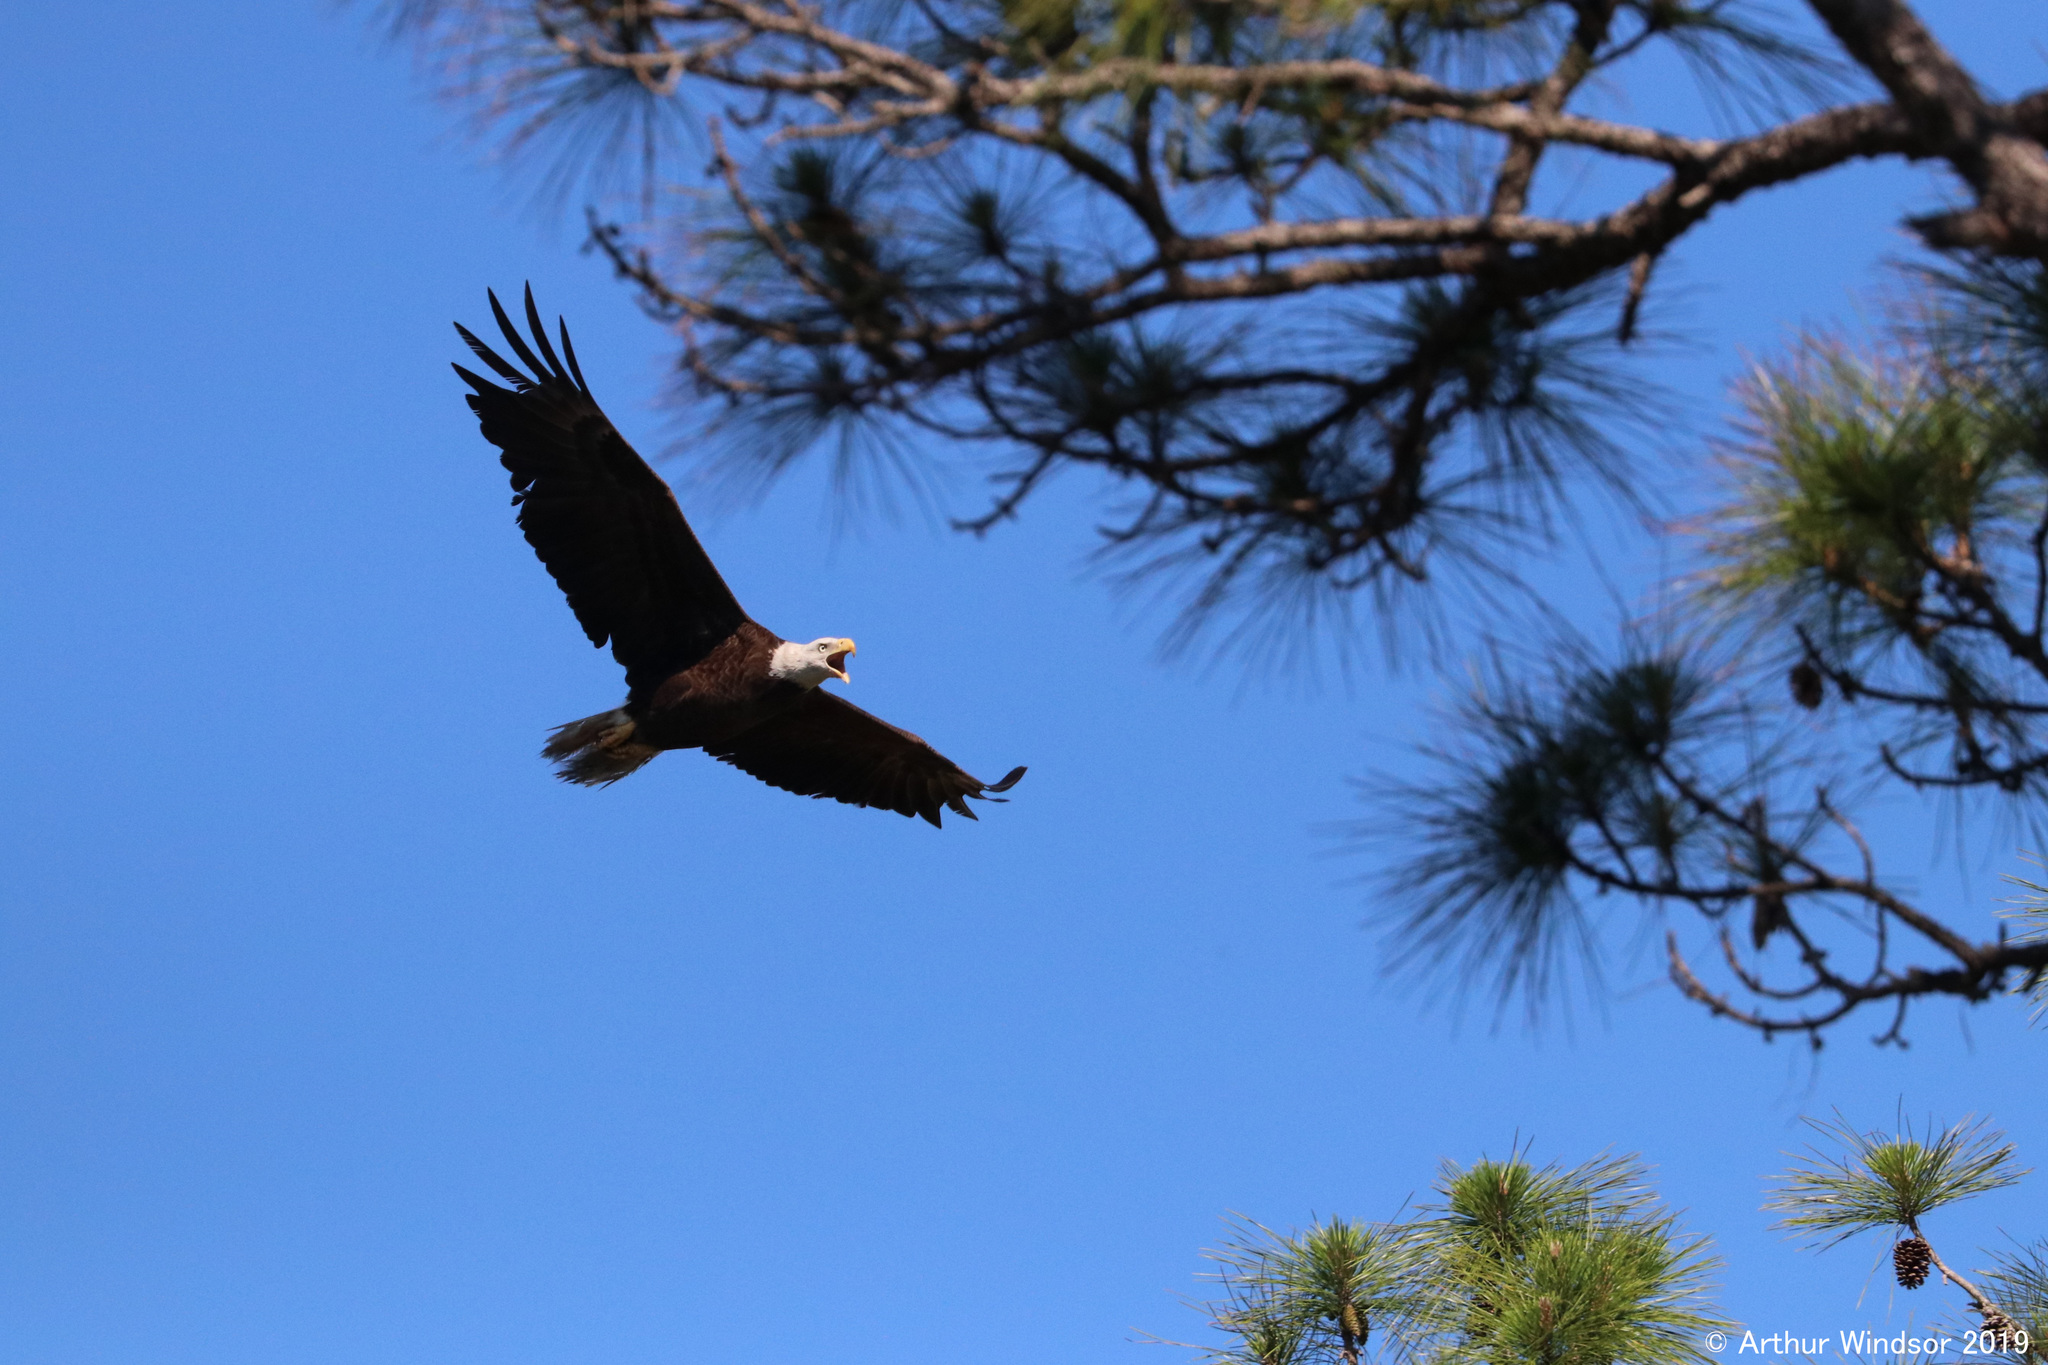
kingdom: Animalia
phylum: Chordata
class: Aves
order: Accipitriformes
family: Accipitridae
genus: Haliaeetus
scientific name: Haliaeetus leucocephalus
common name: Bald eagle
